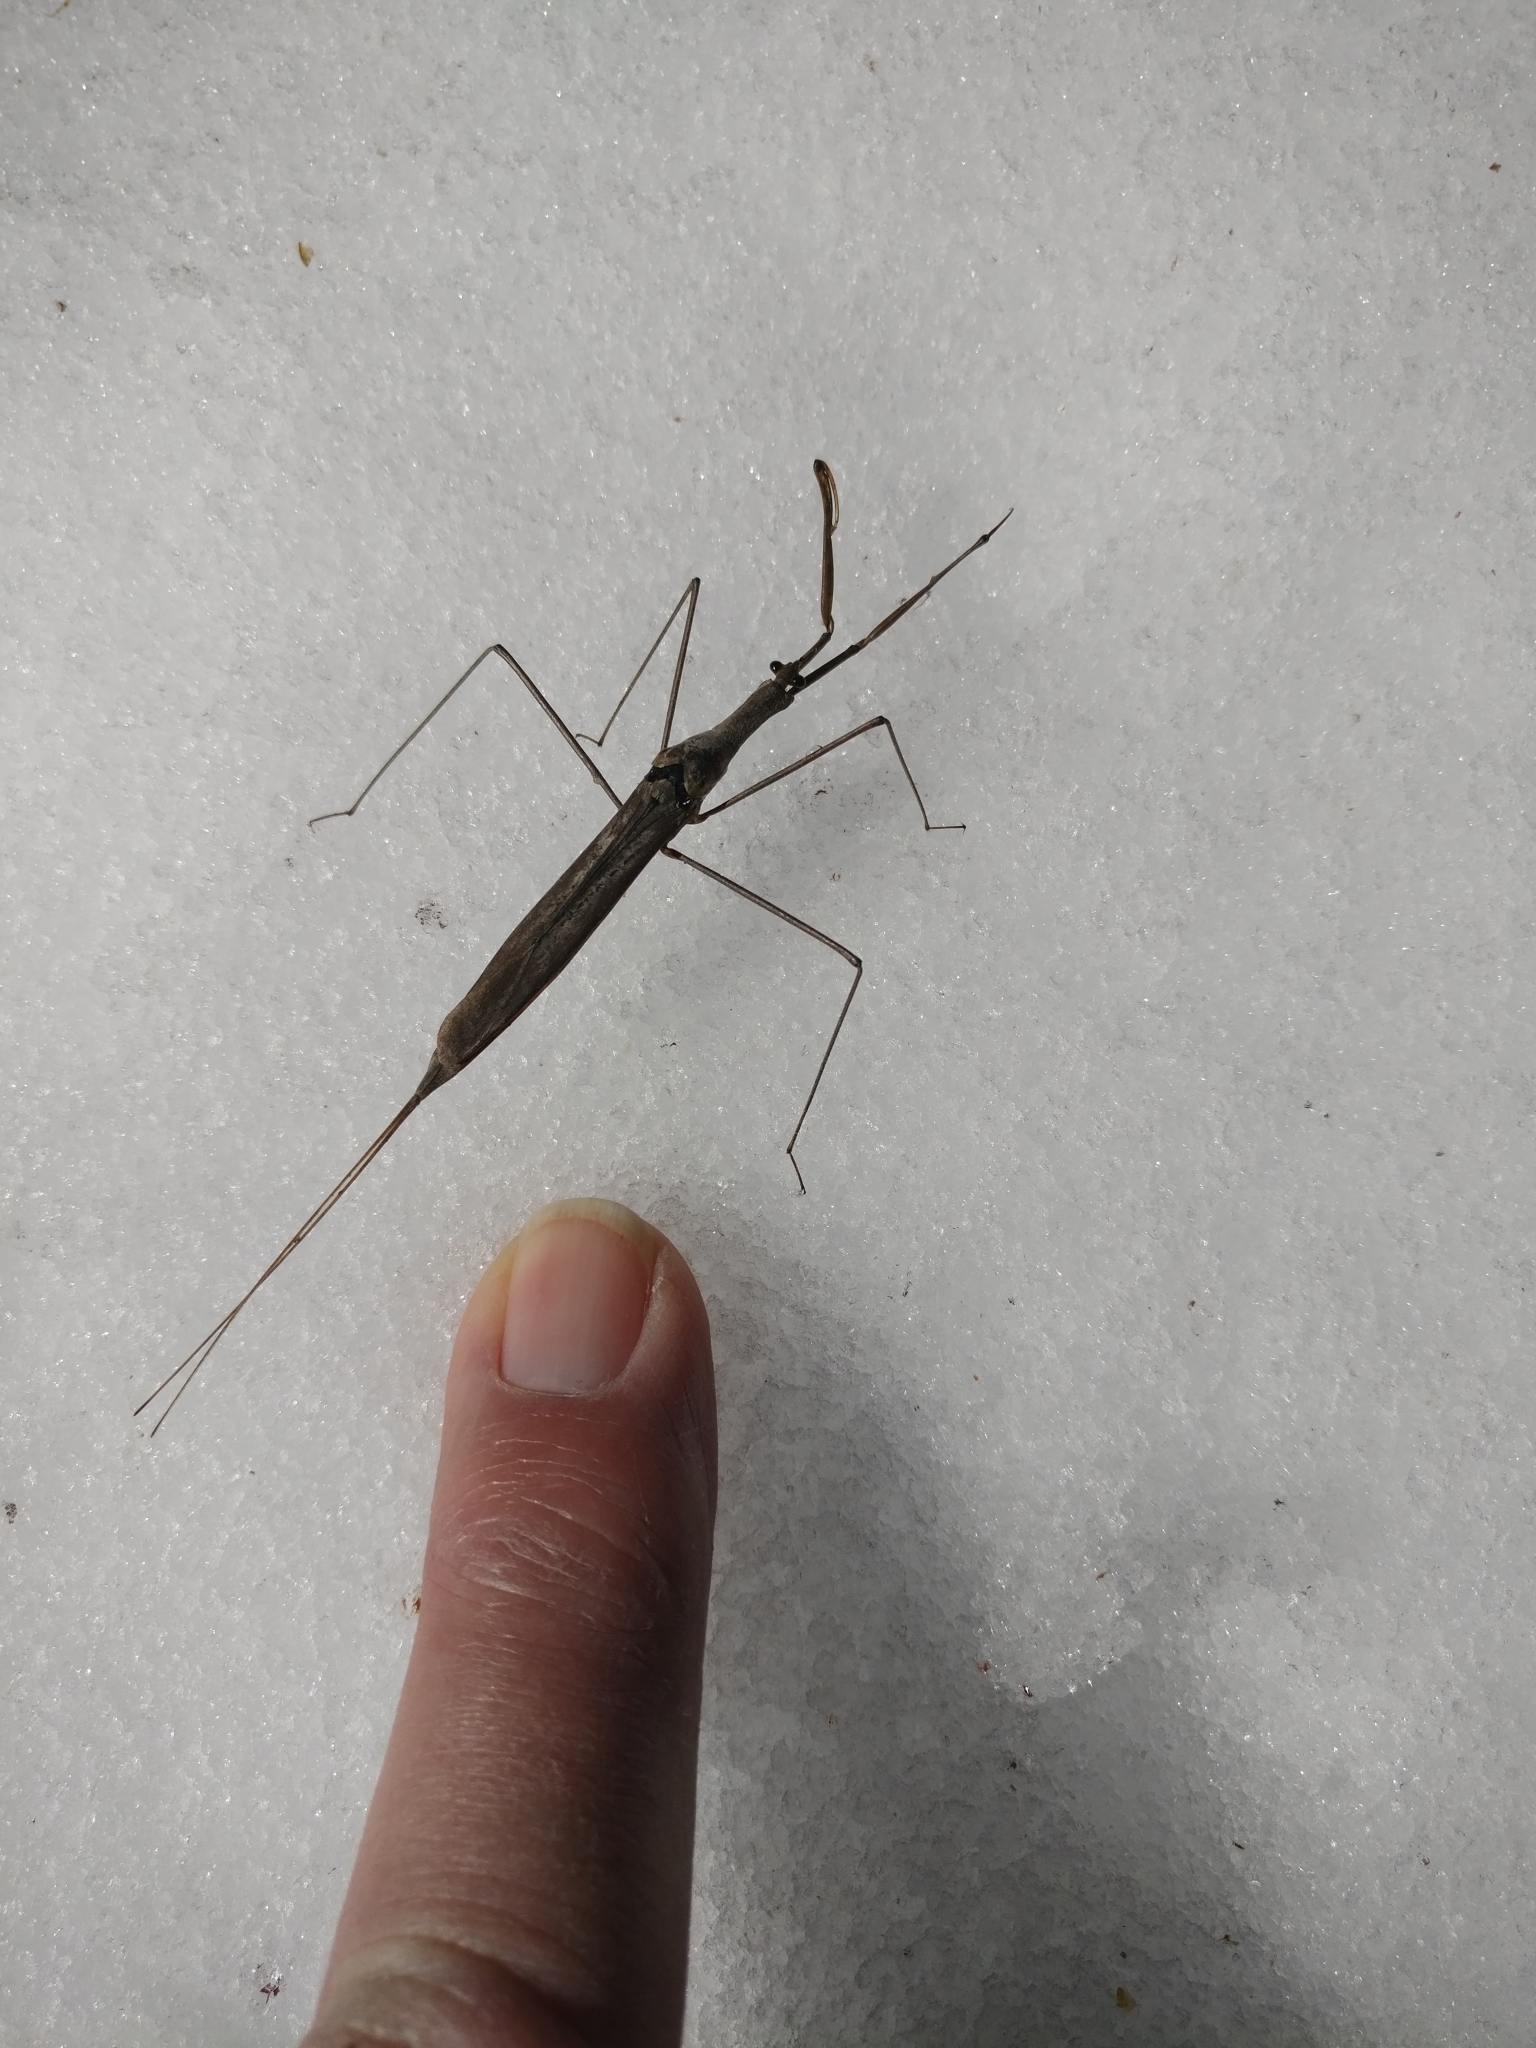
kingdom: Animalia
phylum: Arthropoda
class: Insecta
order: Hemiptera
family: Nepidae
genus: Ranatra
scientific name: Ranatra
